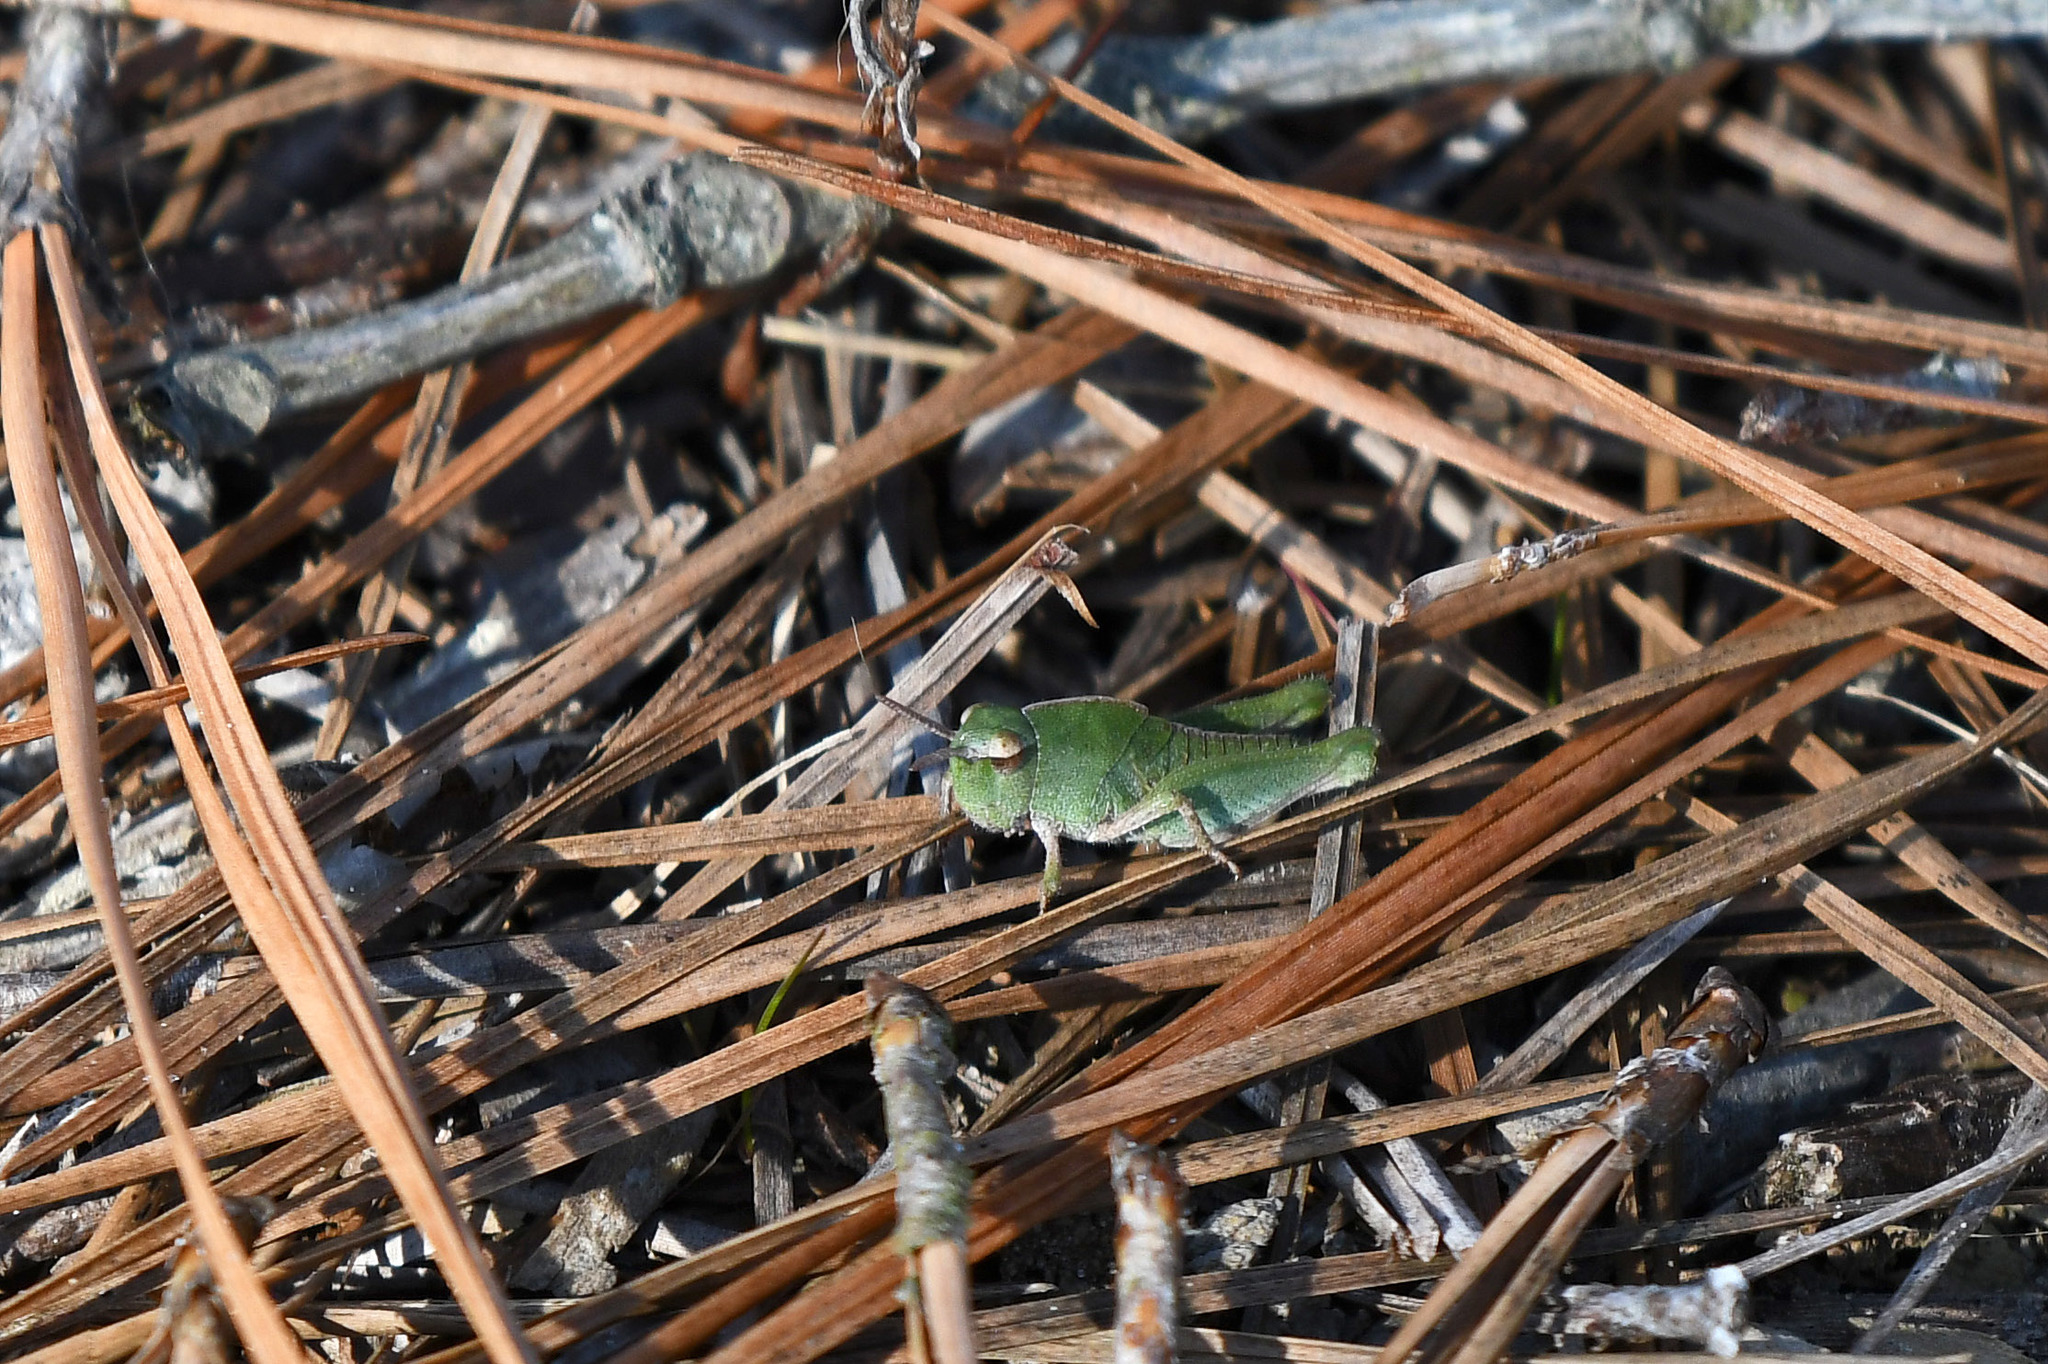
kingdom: Animalia
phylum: Arthropoda
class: Insecta
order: Orthoptera
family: Acrididae
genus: Chortophaga
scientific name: Chortophaga viridifasciata
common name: Green-striped grasshopper
